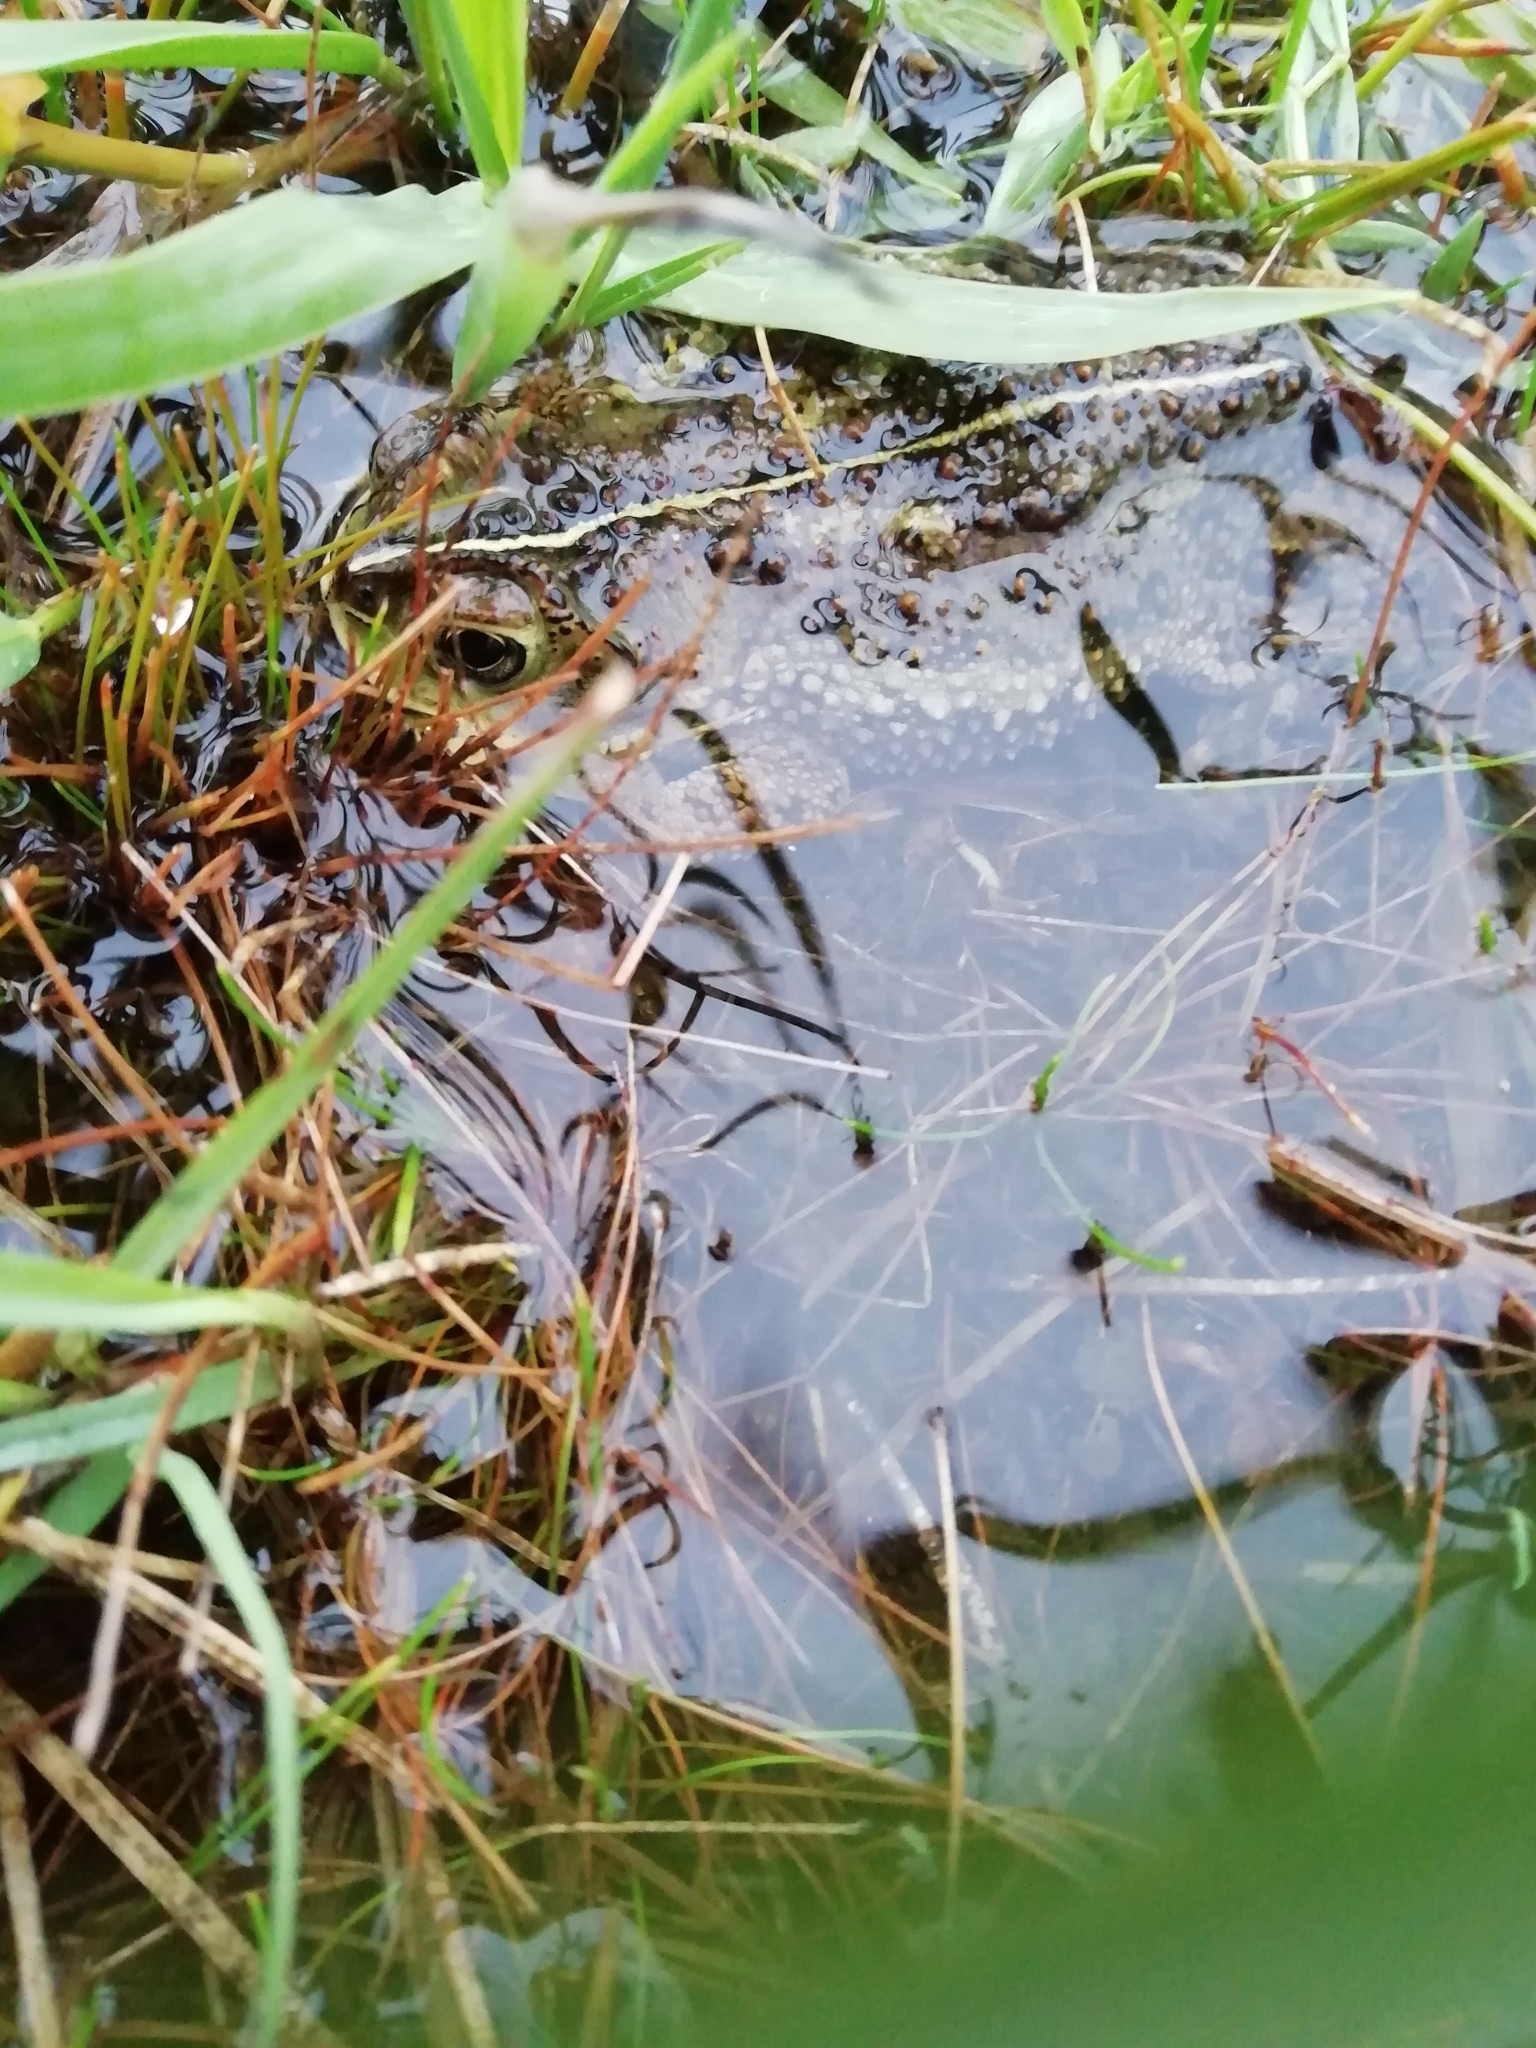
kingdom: Animalia
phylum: Chordata
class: Amphibia
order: Anura
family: Bufonidae
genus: Rhinella
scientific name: Rhinella dorbignyi
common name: D´orbigny’s toad
